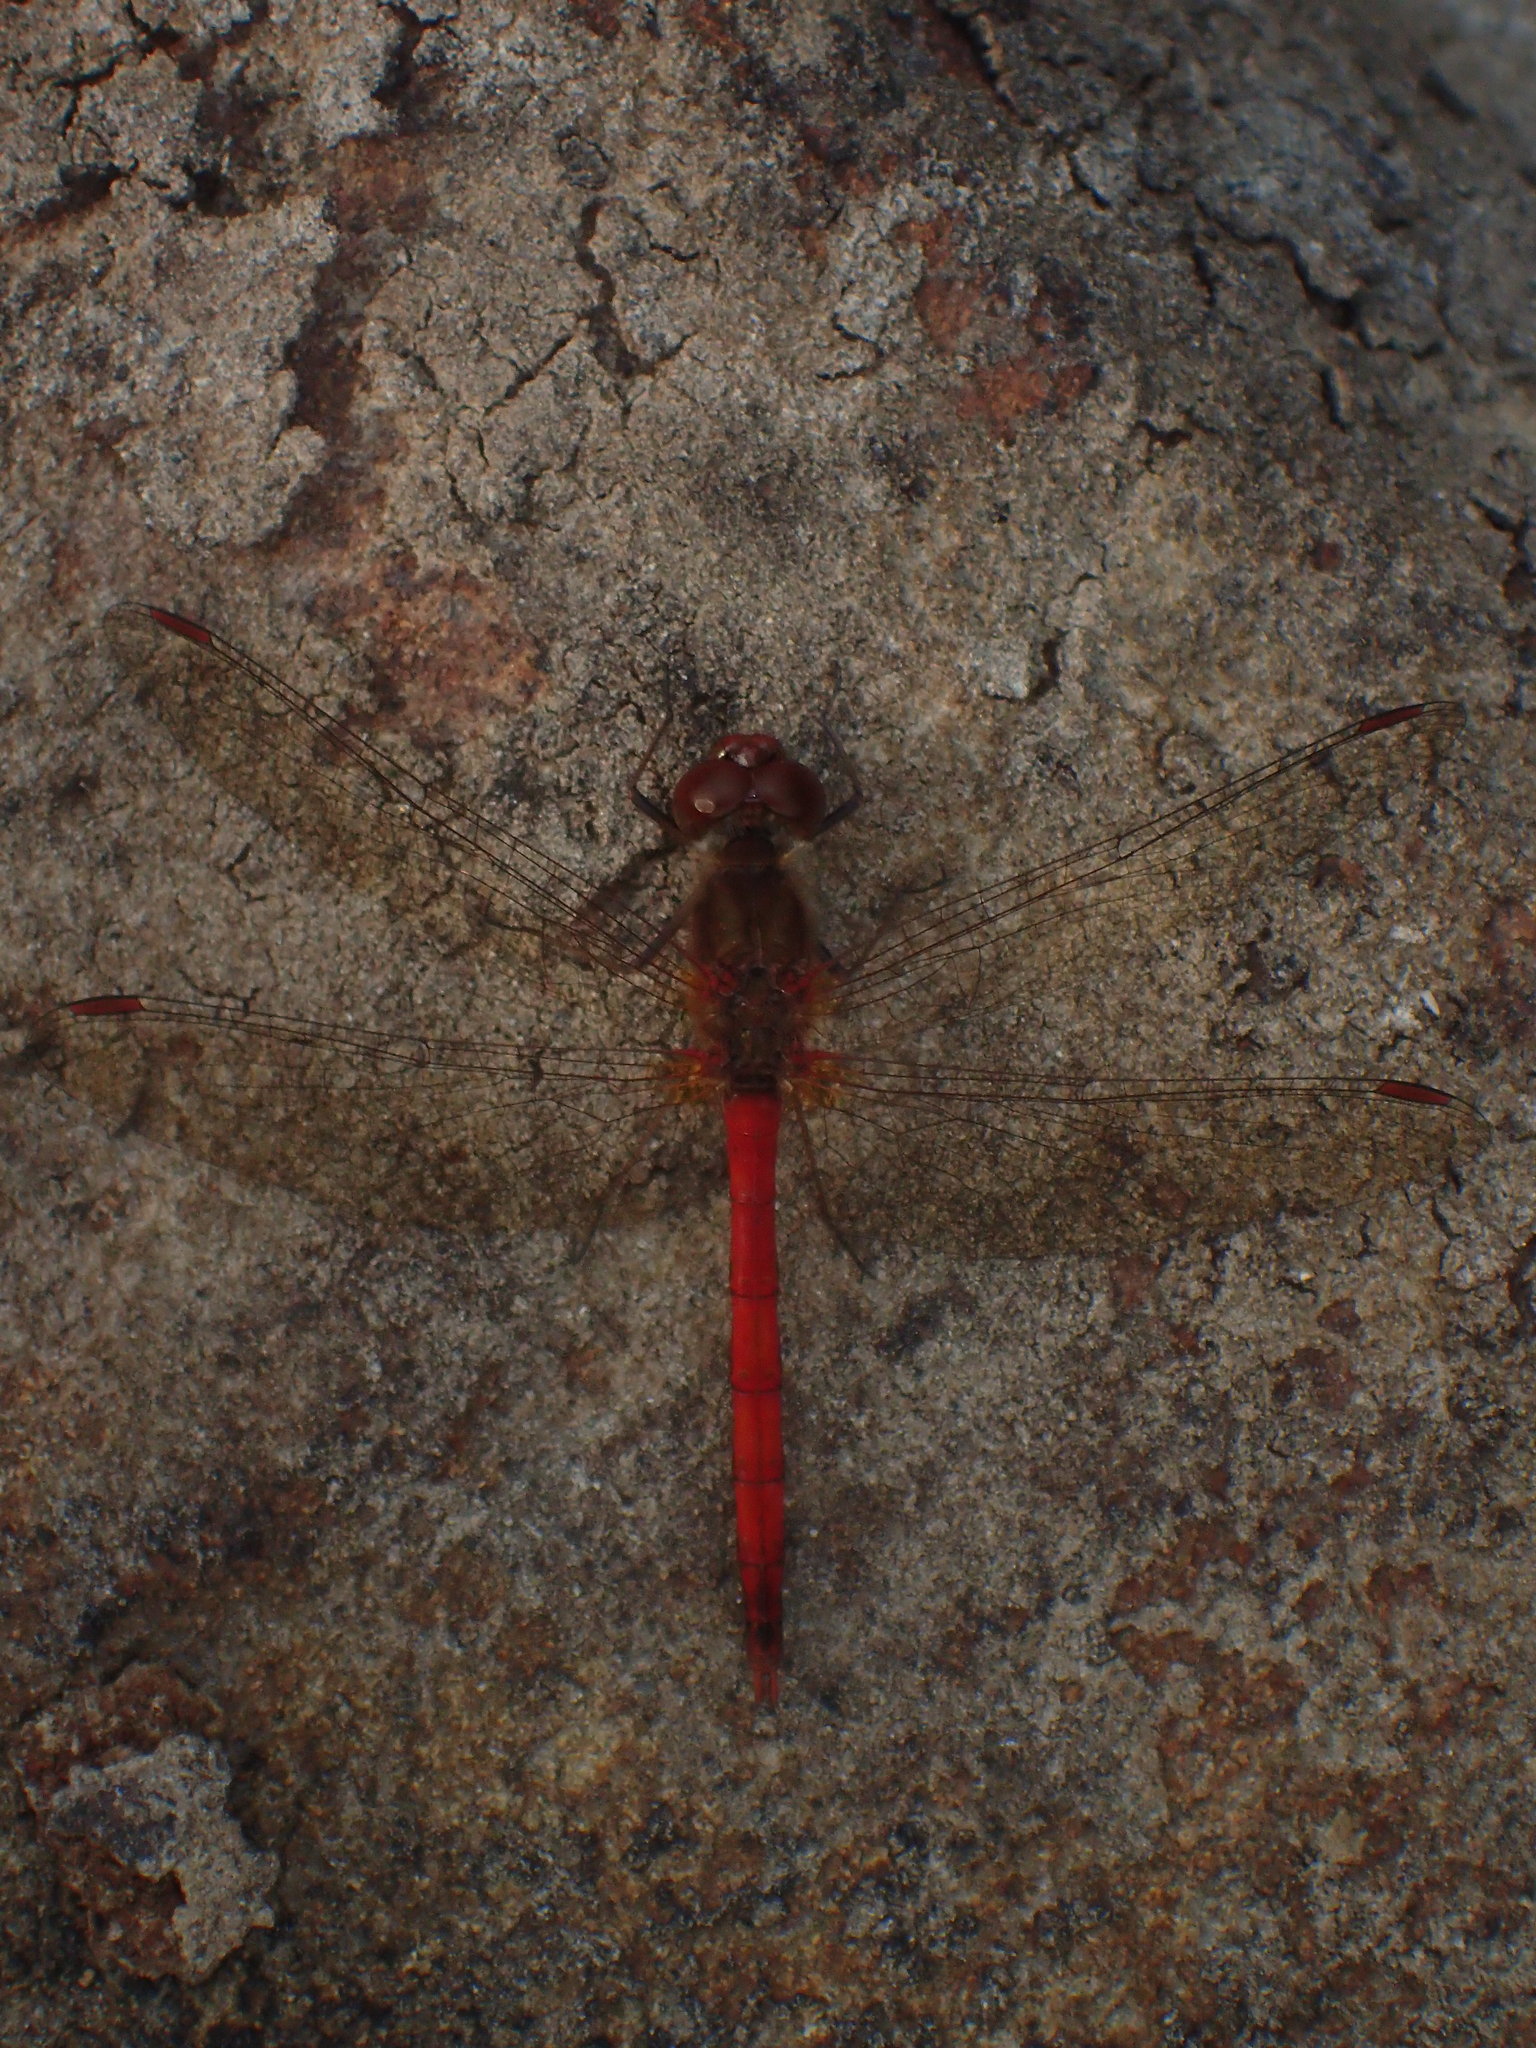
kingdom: Animalia
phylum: Arthropoda
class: Insecta
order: Odonata
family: Libellulidae
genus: Sympetrum
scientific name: Sympetrum vicinum
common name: Autumn meadowhawk
